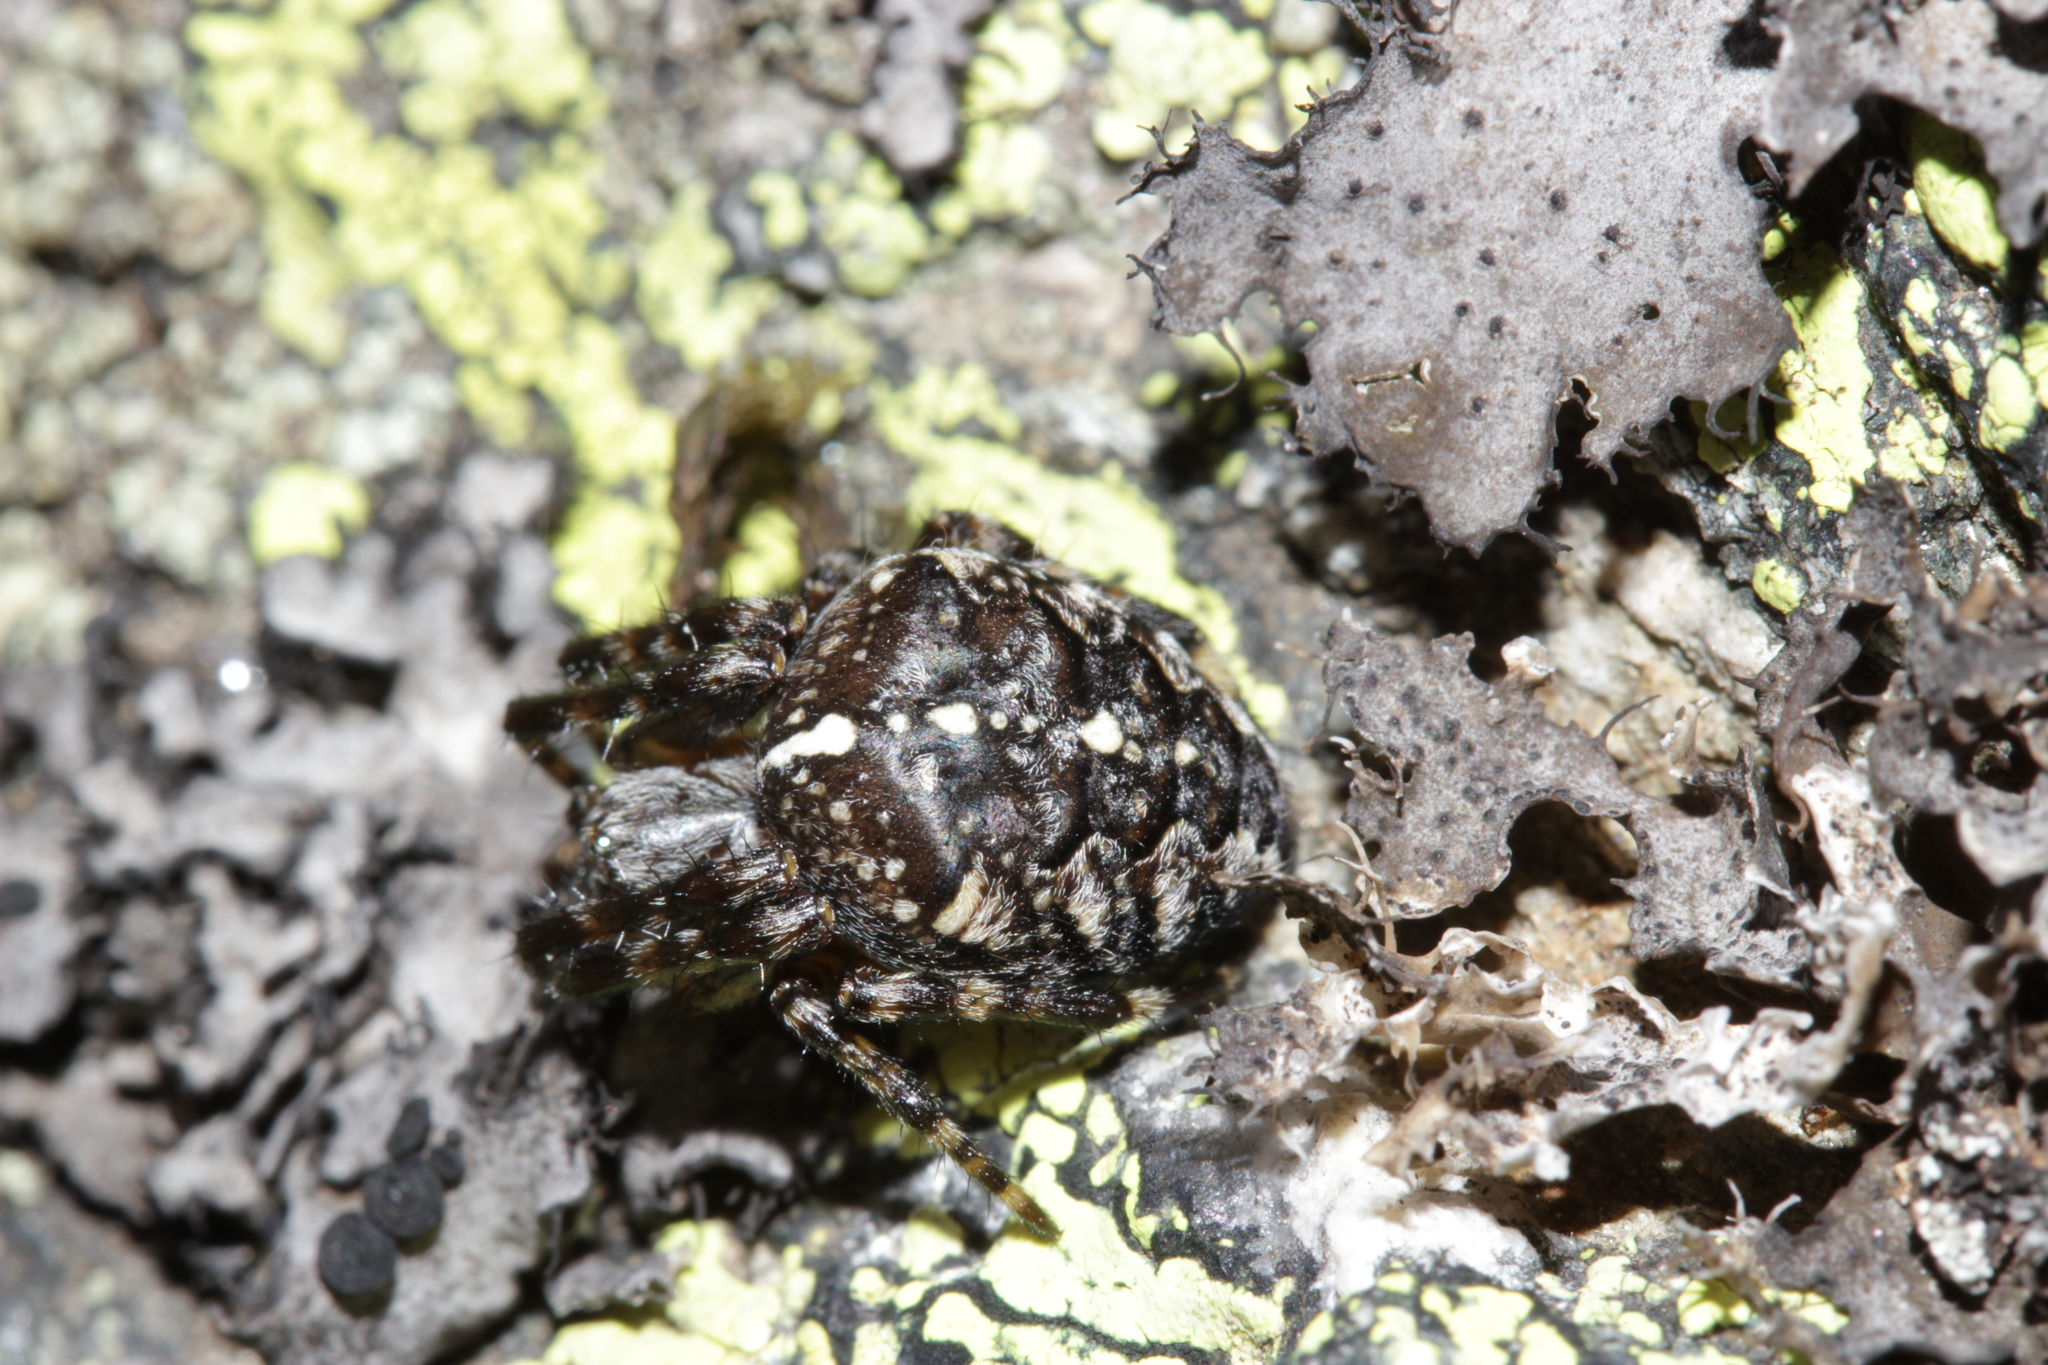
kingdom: Animalia
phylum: Arthropoda
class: Arachnida
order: Araneae
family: Araneidae
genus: Araneus
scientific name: Araneus diadematus
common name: Cross orbweaver
